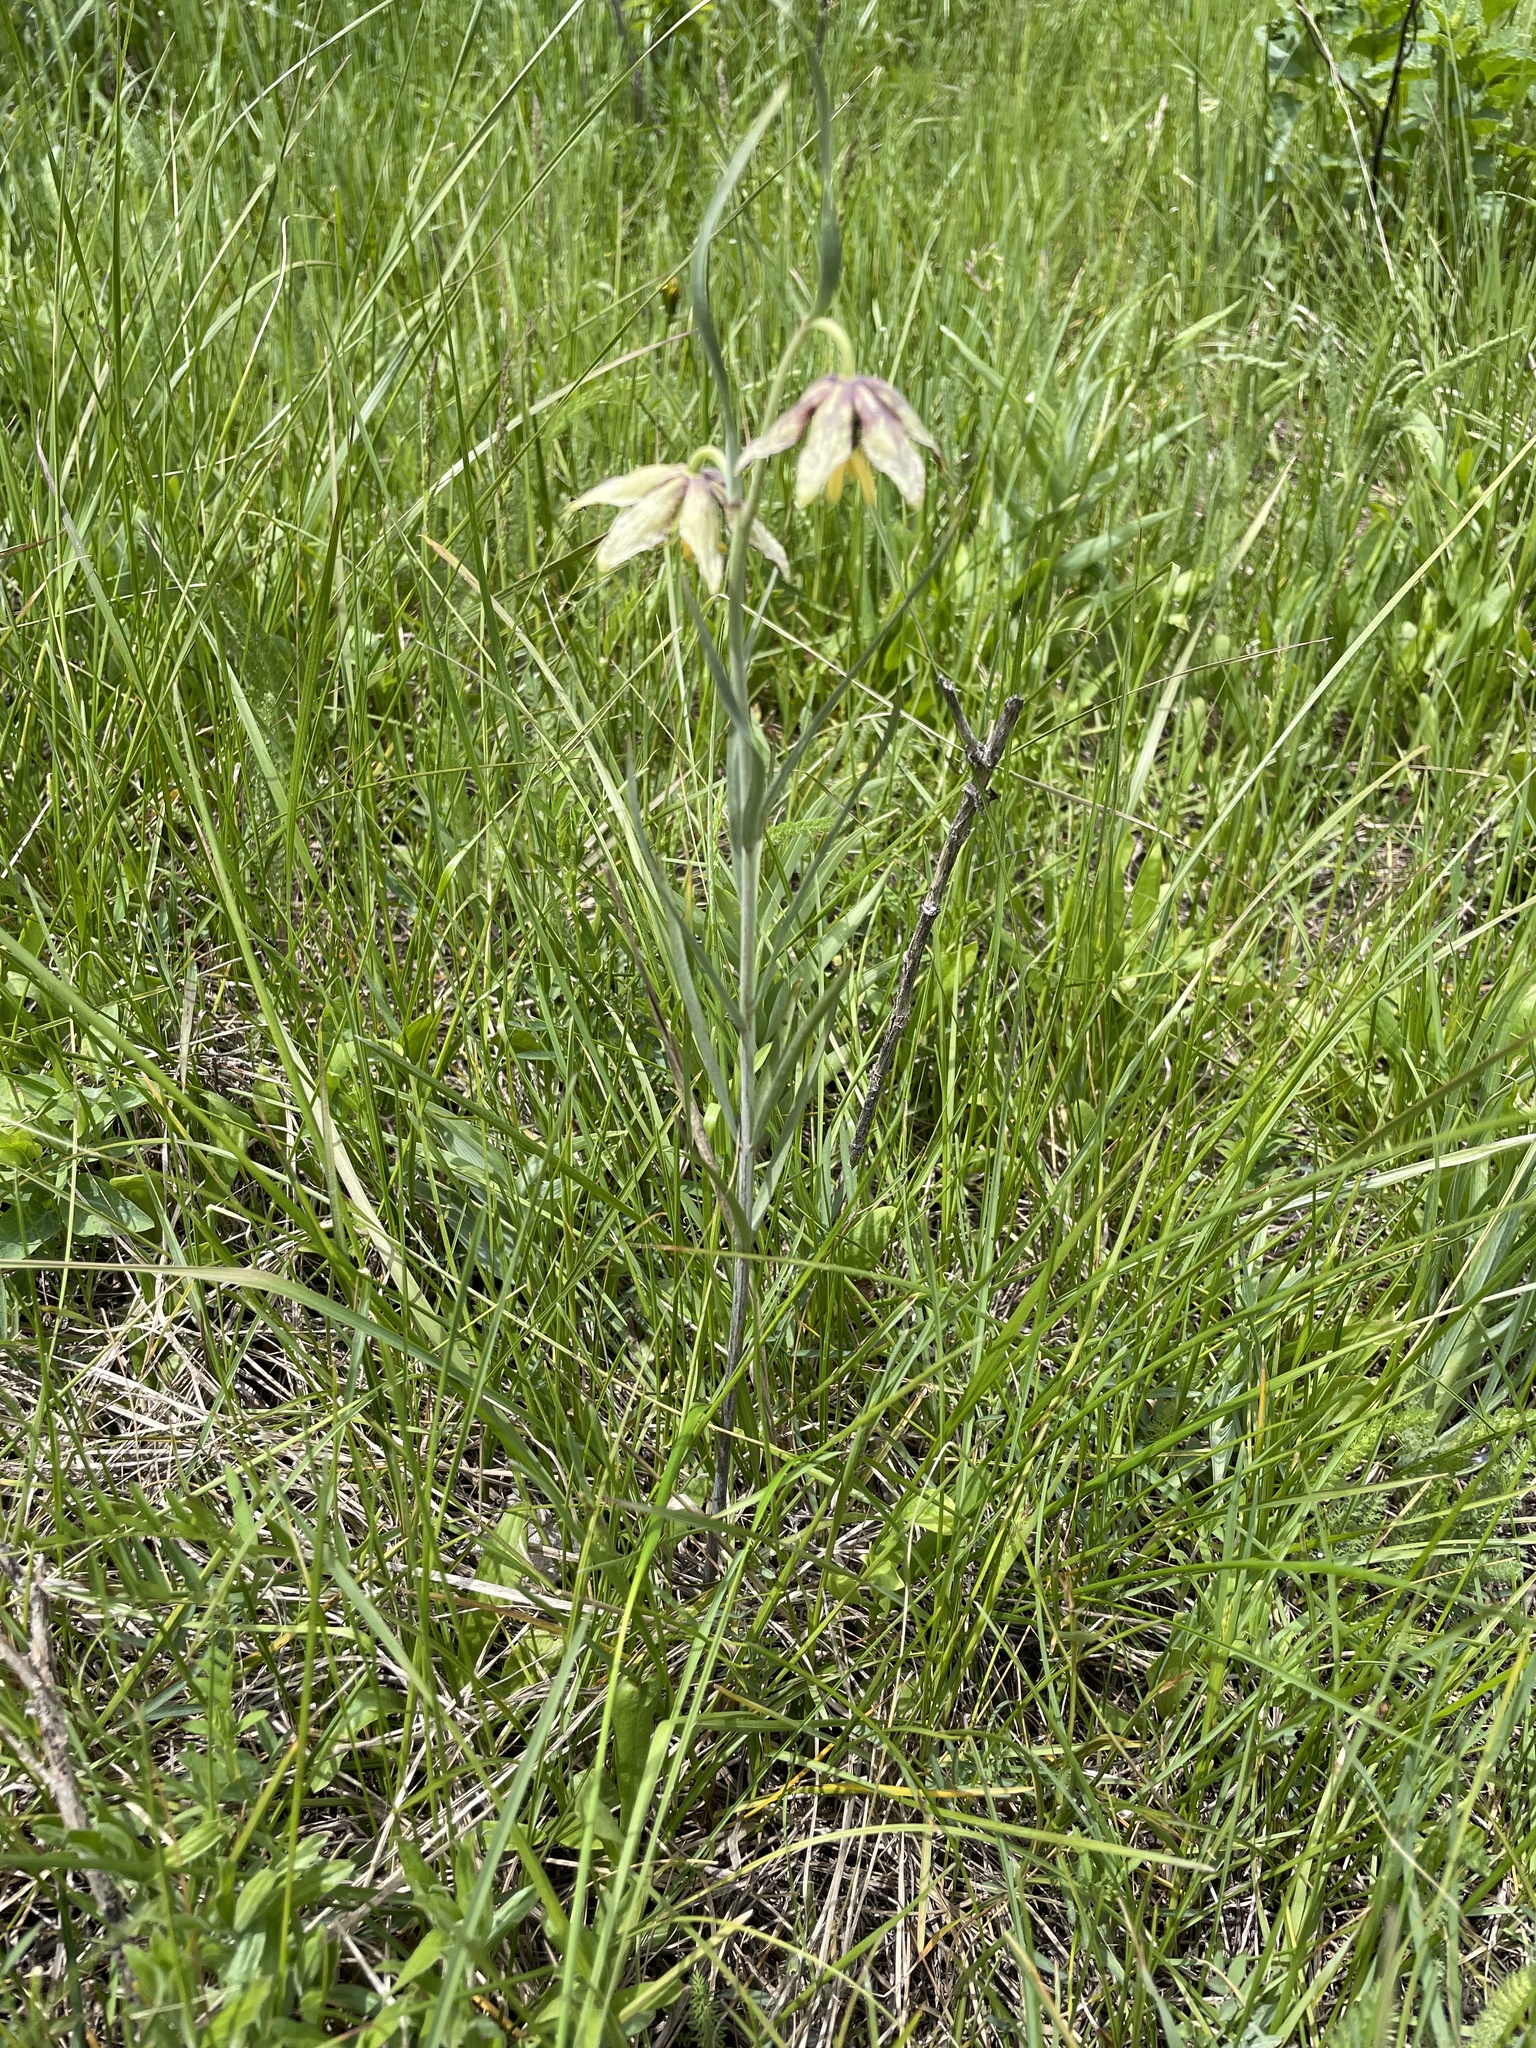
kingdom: Plantae
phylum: Tracheophyta
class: Liliopsida
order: Liliales
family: Liliaceae
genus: Fritillaria
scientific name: Fritillaria atropurpurea
